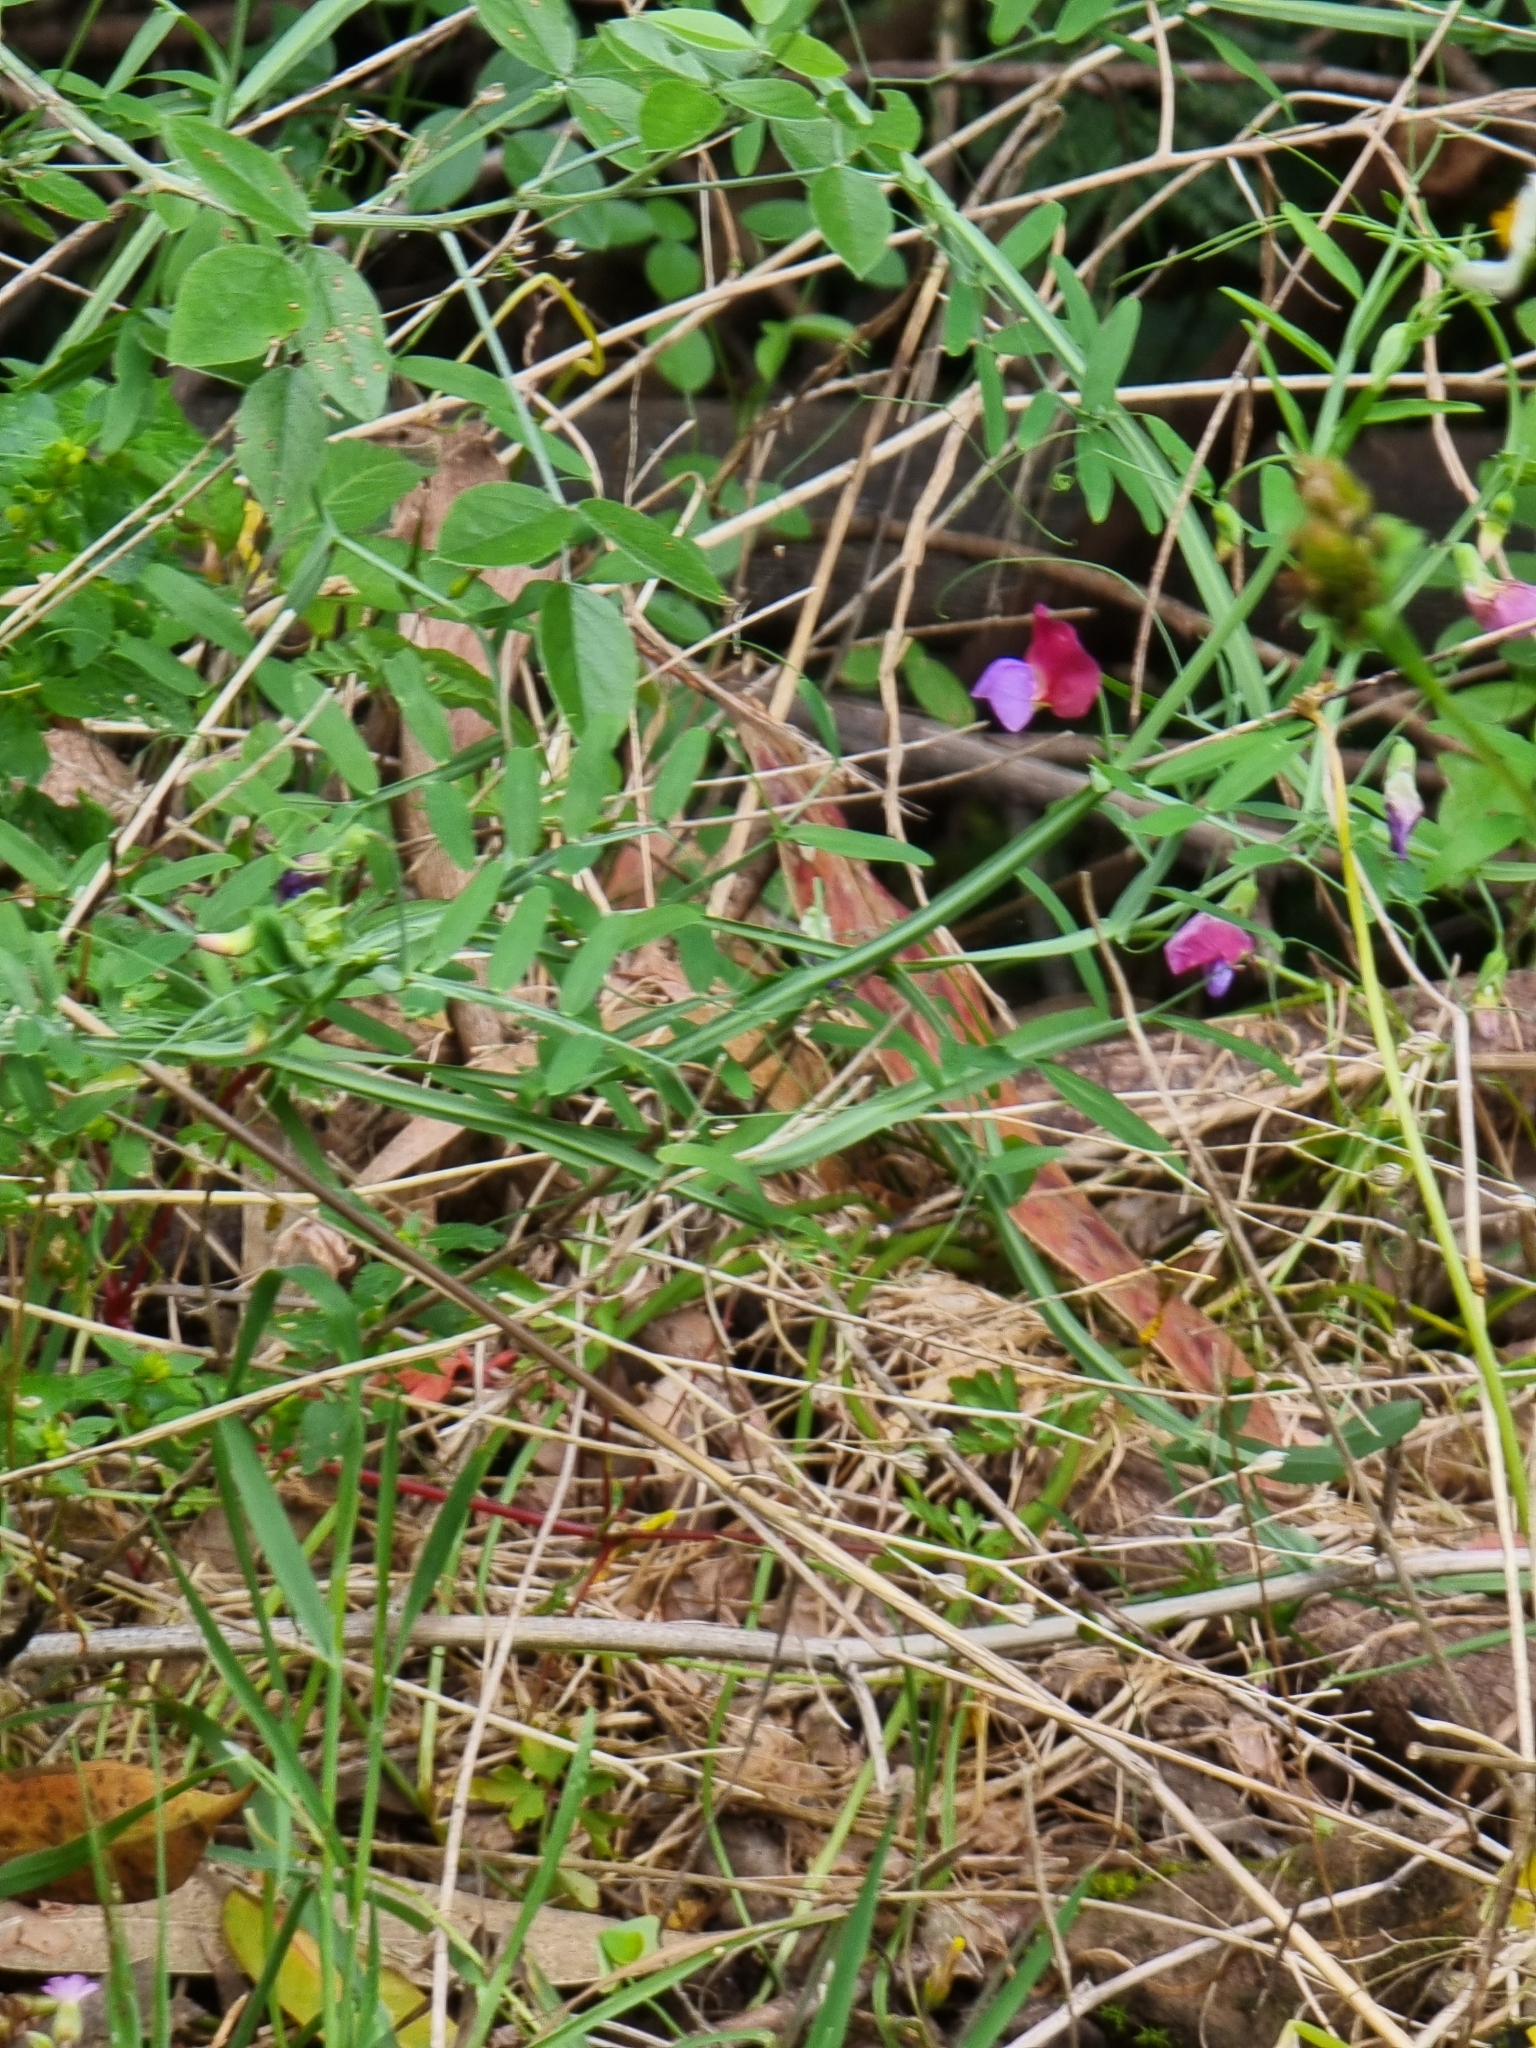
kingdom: Plantae
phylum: Tracheophyta
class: Magnoliopsida
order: Fabales
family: Fabaceae
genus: Lathyrus
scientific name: Lathyrus clymenum
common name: Spanish vetchling
